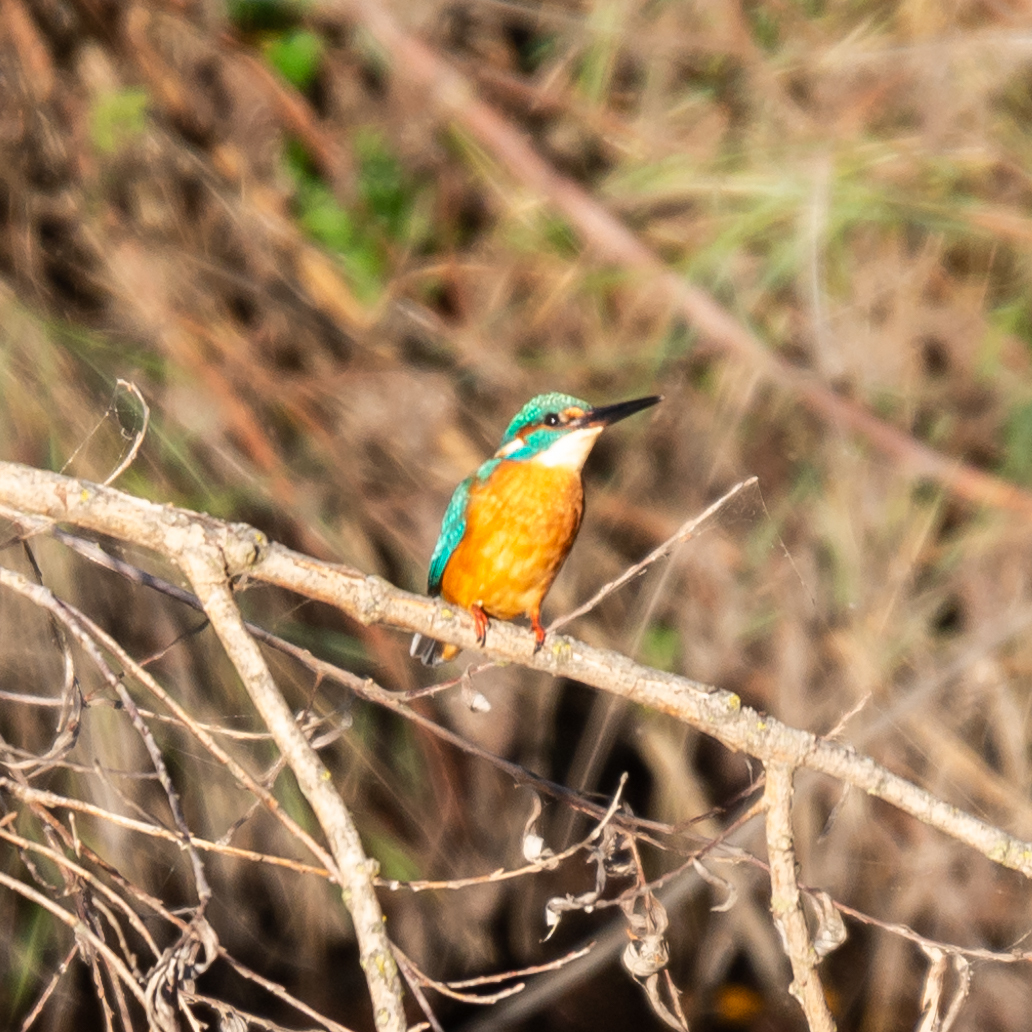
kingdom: Animalia
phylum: Chordata
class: Aves
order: Coraciiformes
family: Alcedinidae
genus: Alcedo
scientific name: Alcedo atthis
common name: Common kingfisher
